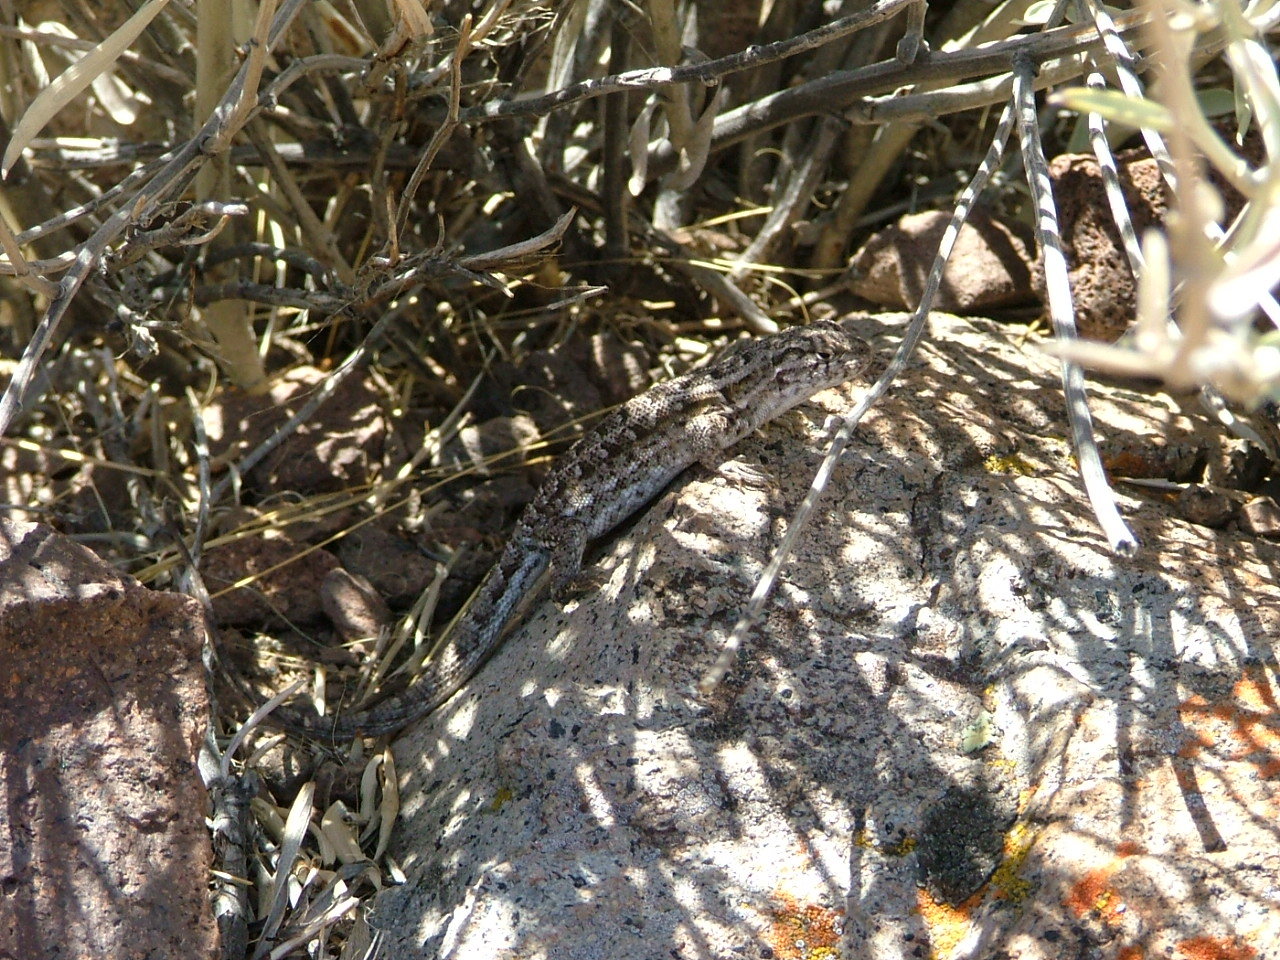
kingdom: Animalia
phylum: Chordata
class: Squamata
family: Liolaemidae
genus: Liolaemus
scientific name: Liolaemus darwinii
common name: Darwin's tree iguana
